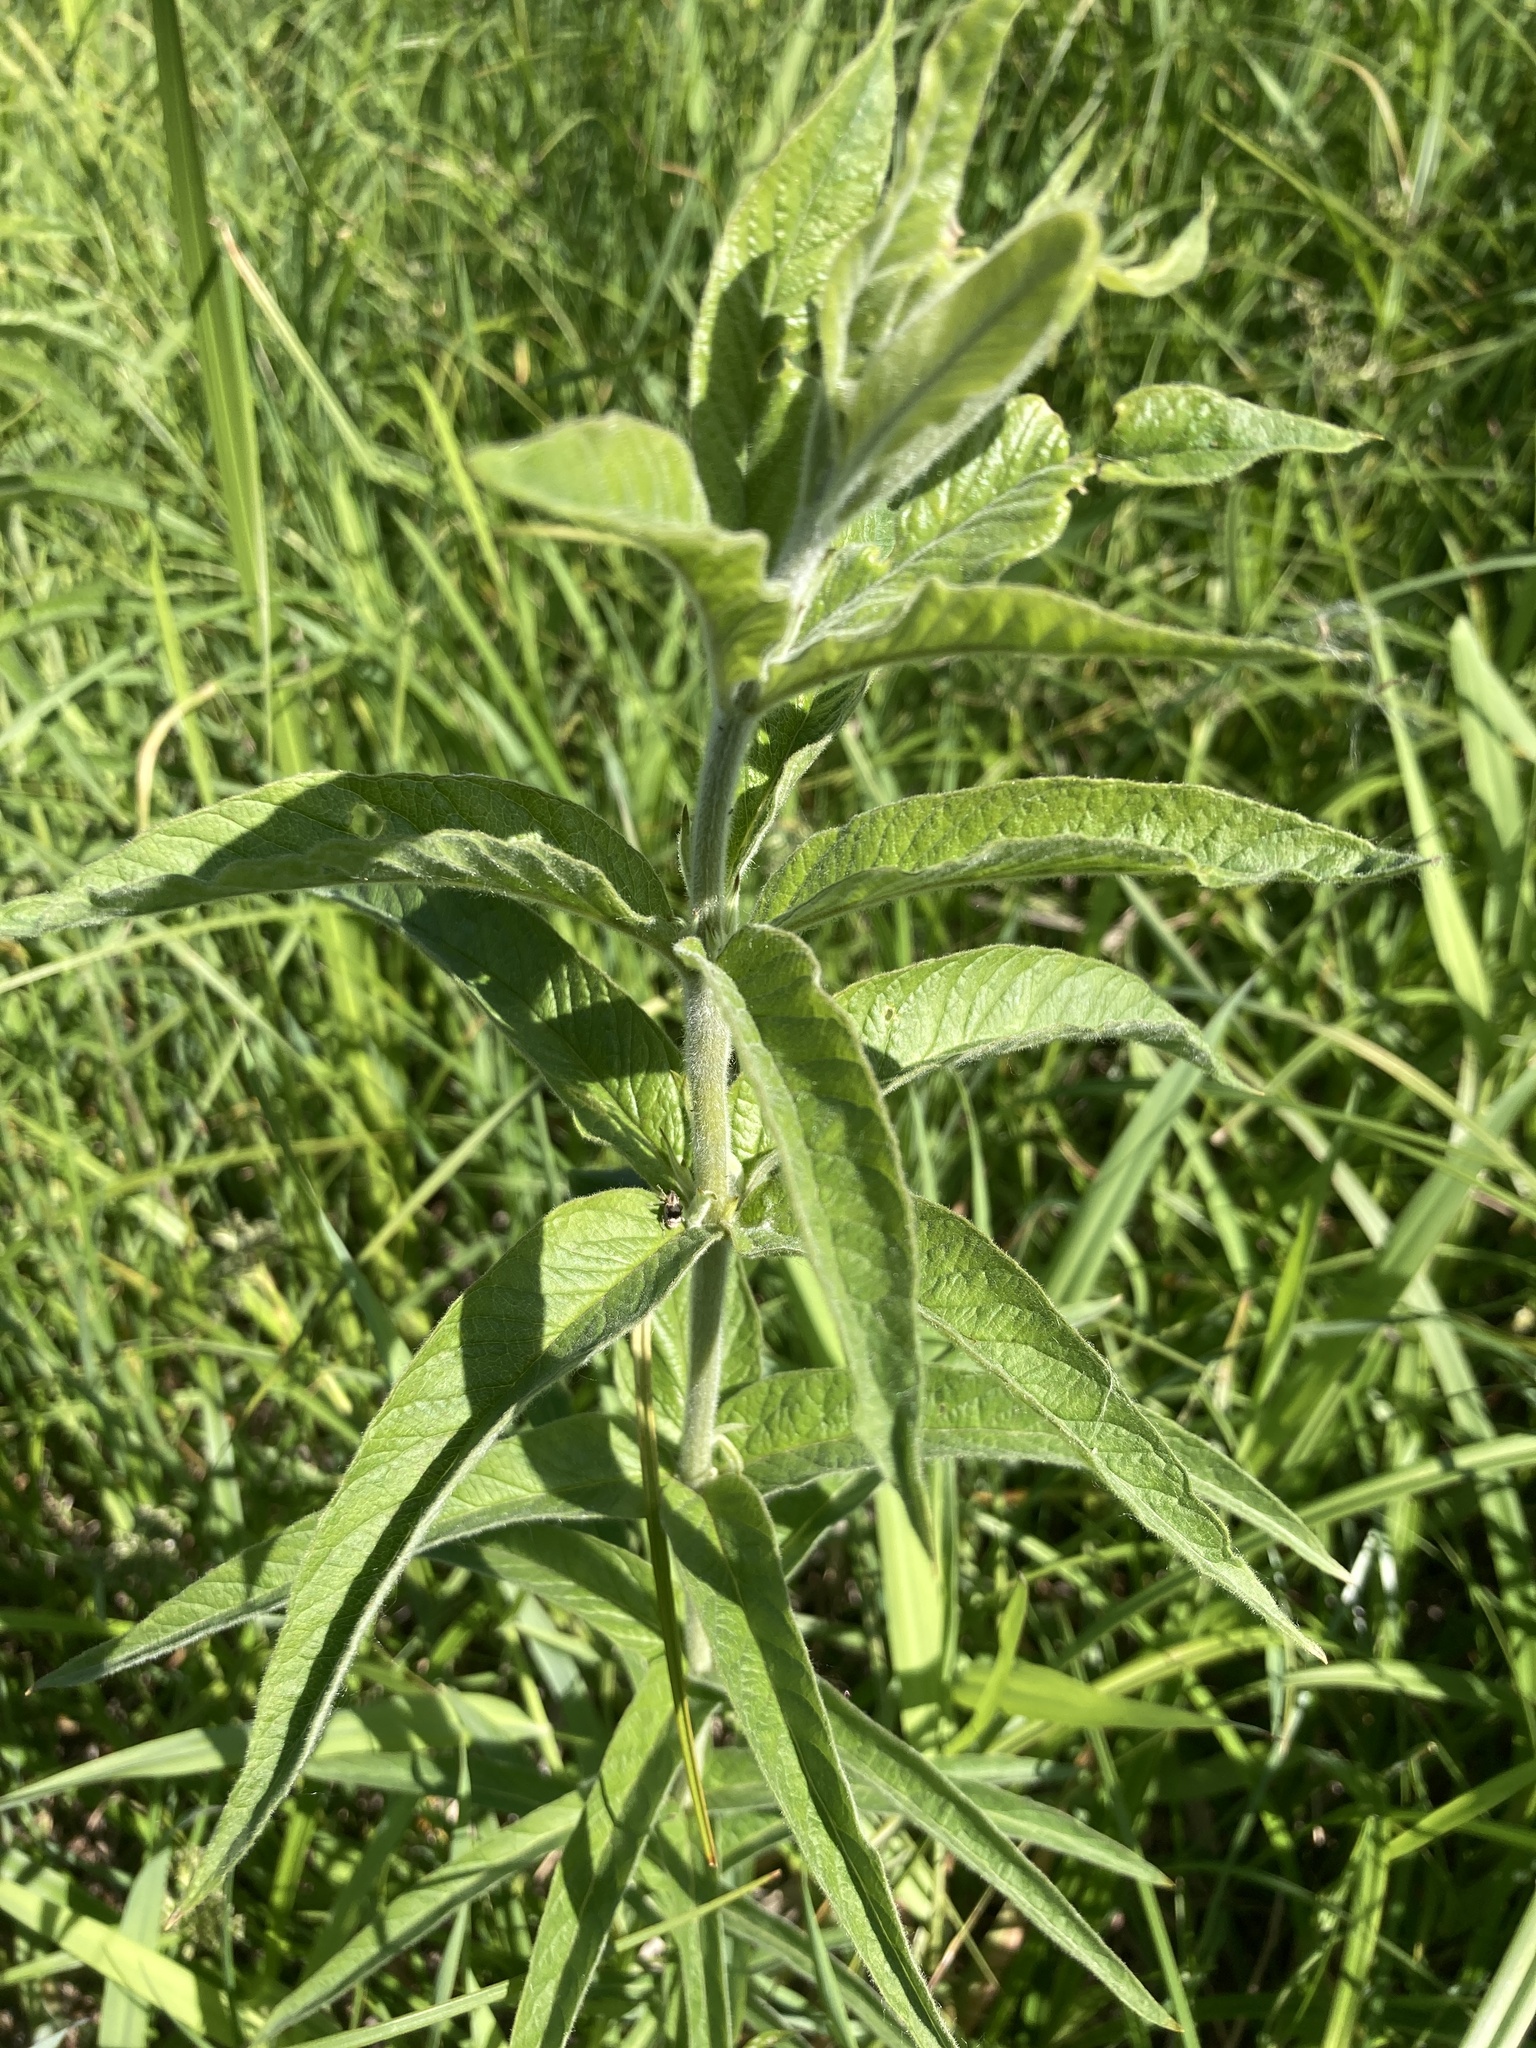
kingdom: Plantae
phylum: Tracheophyta
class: Magnoliopsida
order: Ericales
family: Primulaceae
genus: Lysimachia
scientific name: Lysimachia vulgaris
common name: Yellow loosestrife
